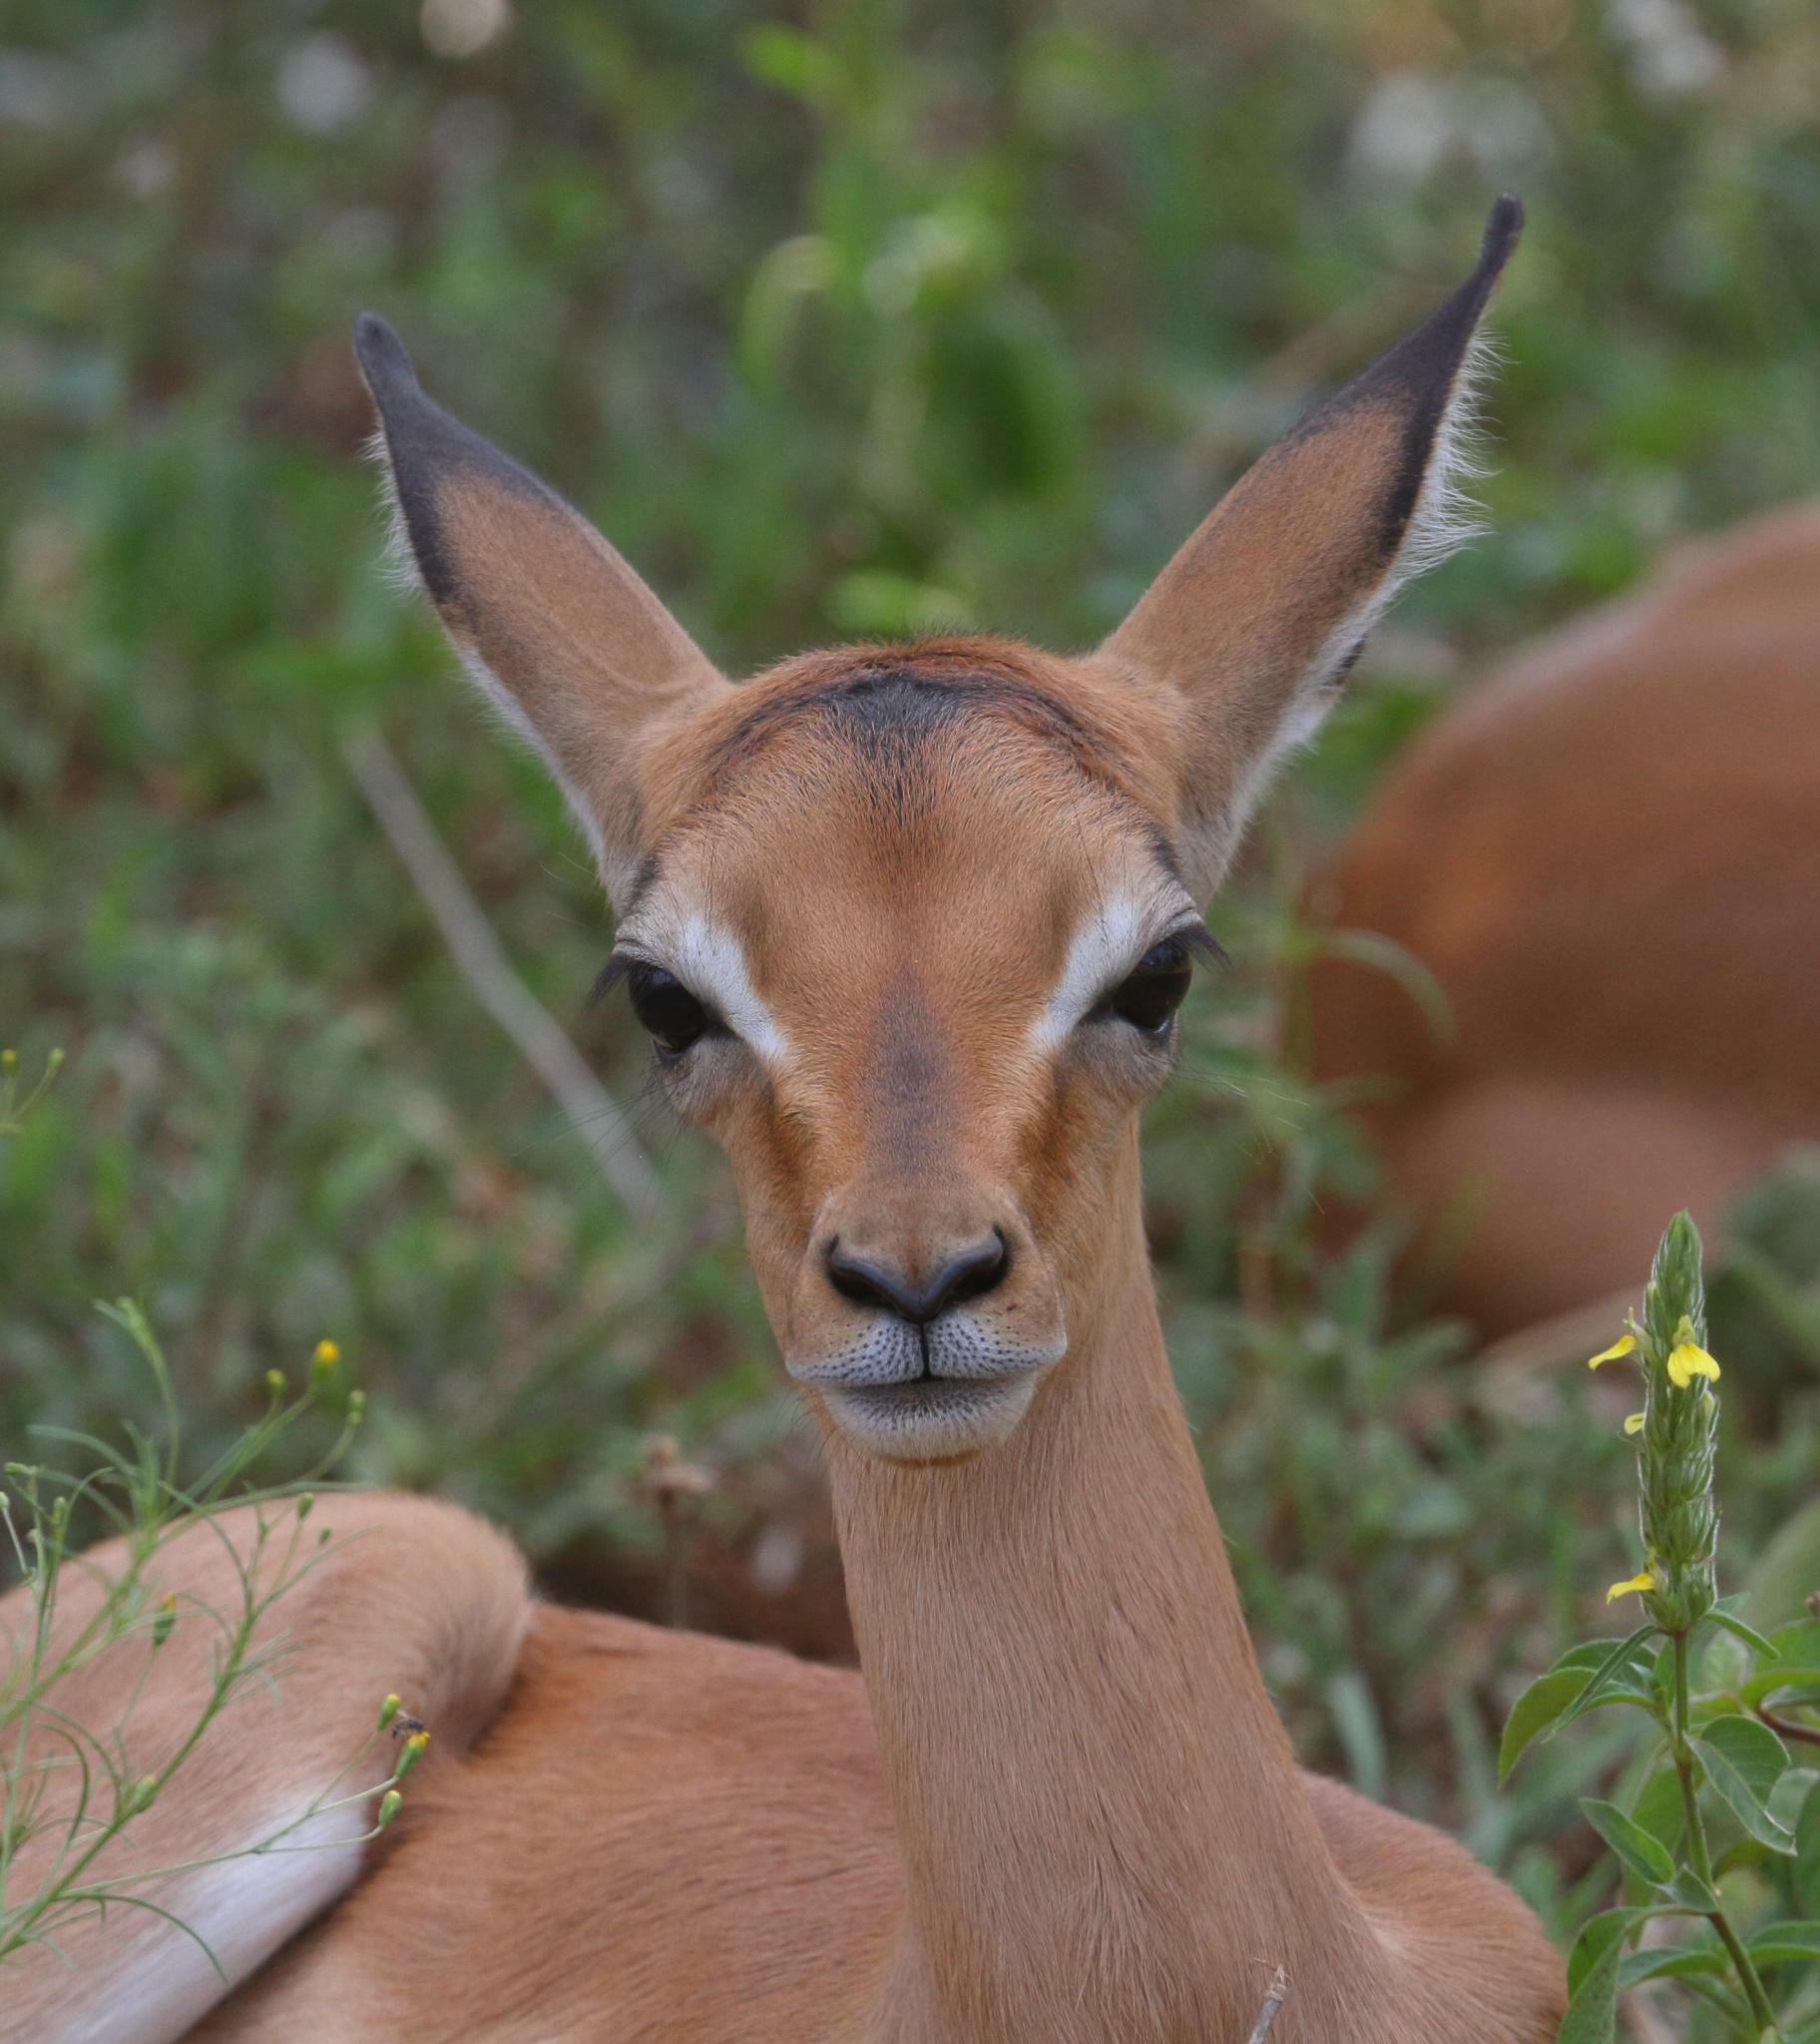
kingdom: Animalia
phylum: Chordata
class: Mammalia
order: Artiodactyla
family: Bovidae
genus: Aepyceros
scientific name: Aepyceros melampus
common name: Impala
